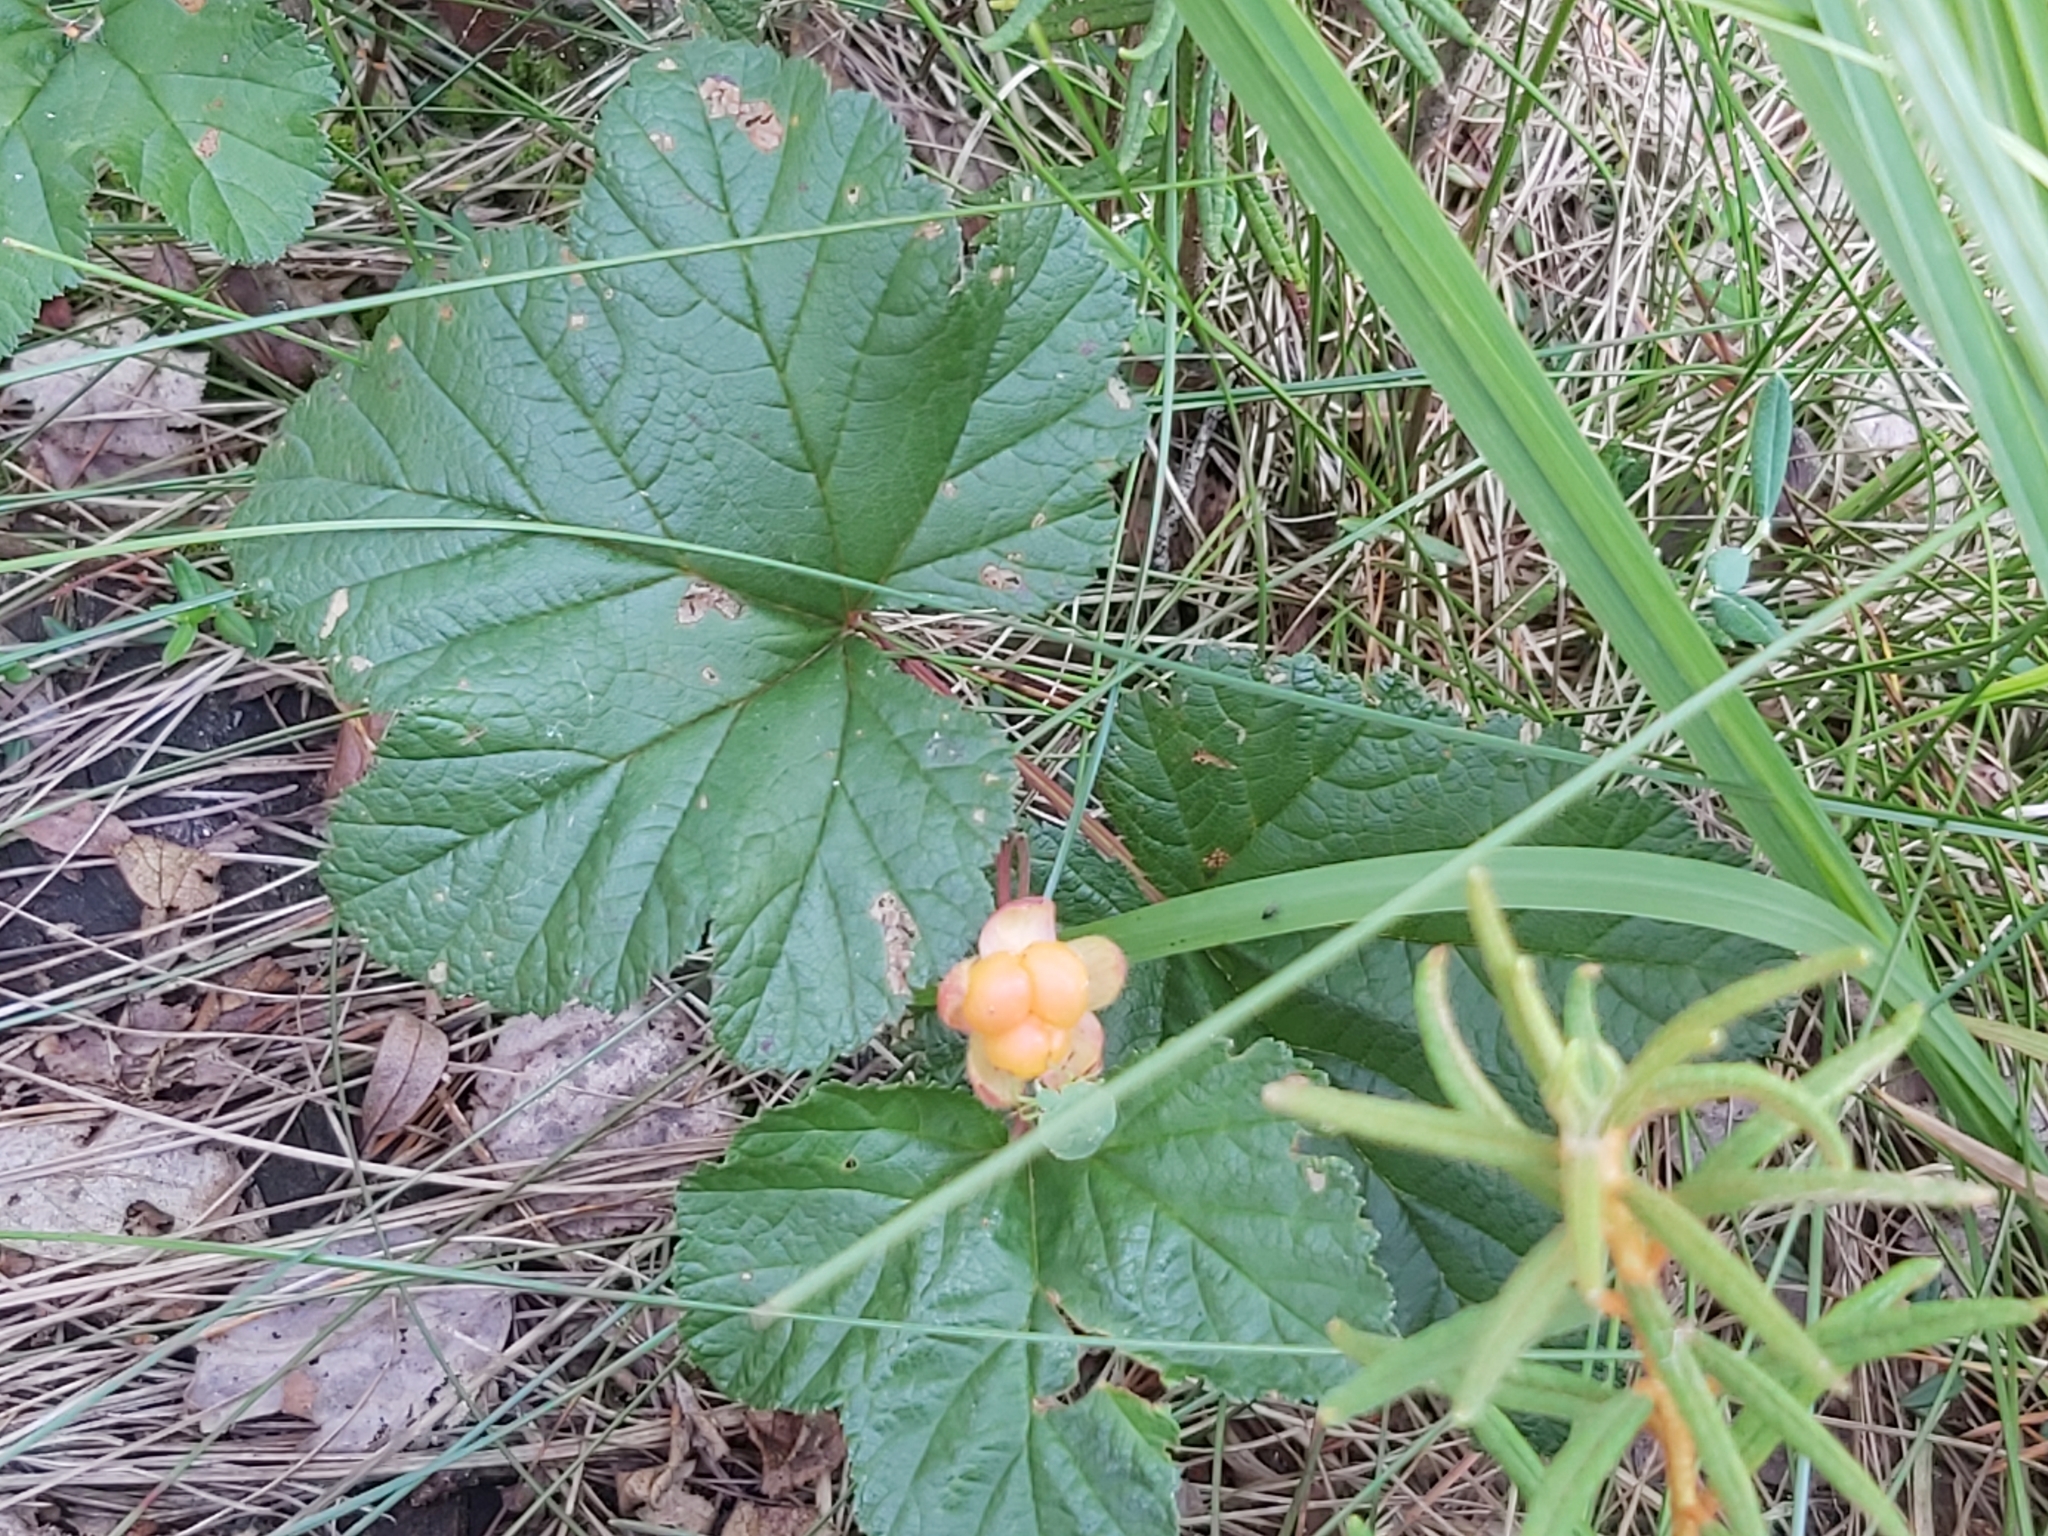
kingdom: Plantae
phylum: Tracheophyta
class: Magnoliopsida
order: Rosales
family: Rosaceae
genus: Rubus
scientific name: Rubus chamaemorus
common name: Cloudberry
